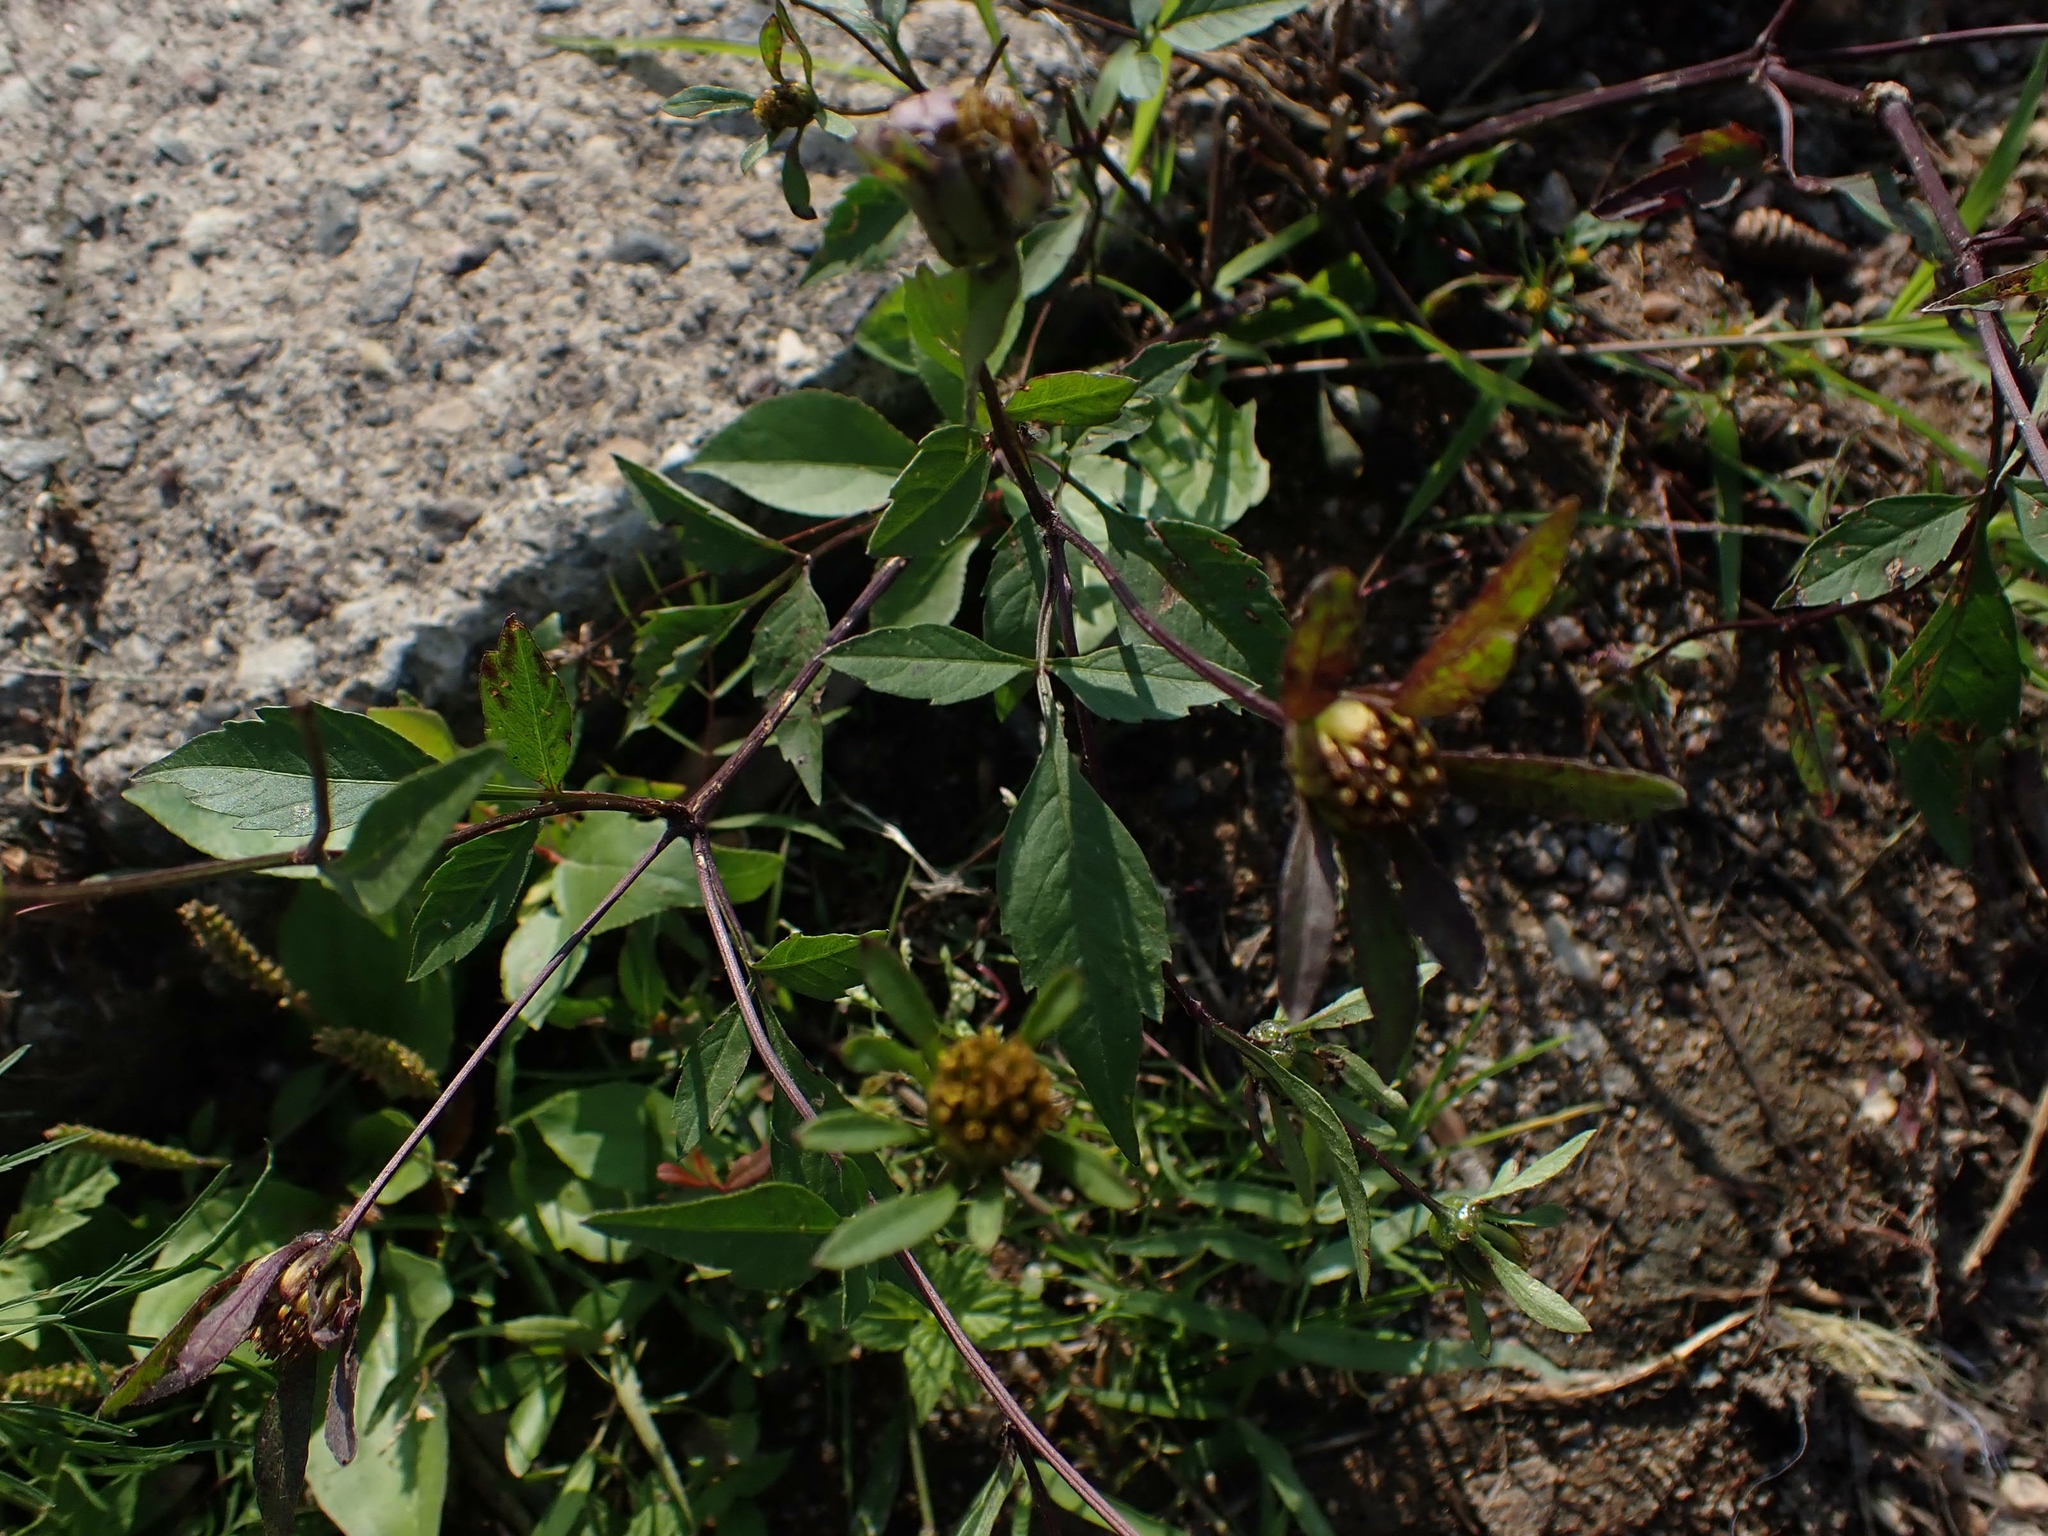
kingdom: Plantae
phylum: Tracheophyta
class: Magnoliopsida
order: Asterales
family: Asteraceae
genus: Bidens
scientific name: Bidens frondosa
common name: Beggarticks
